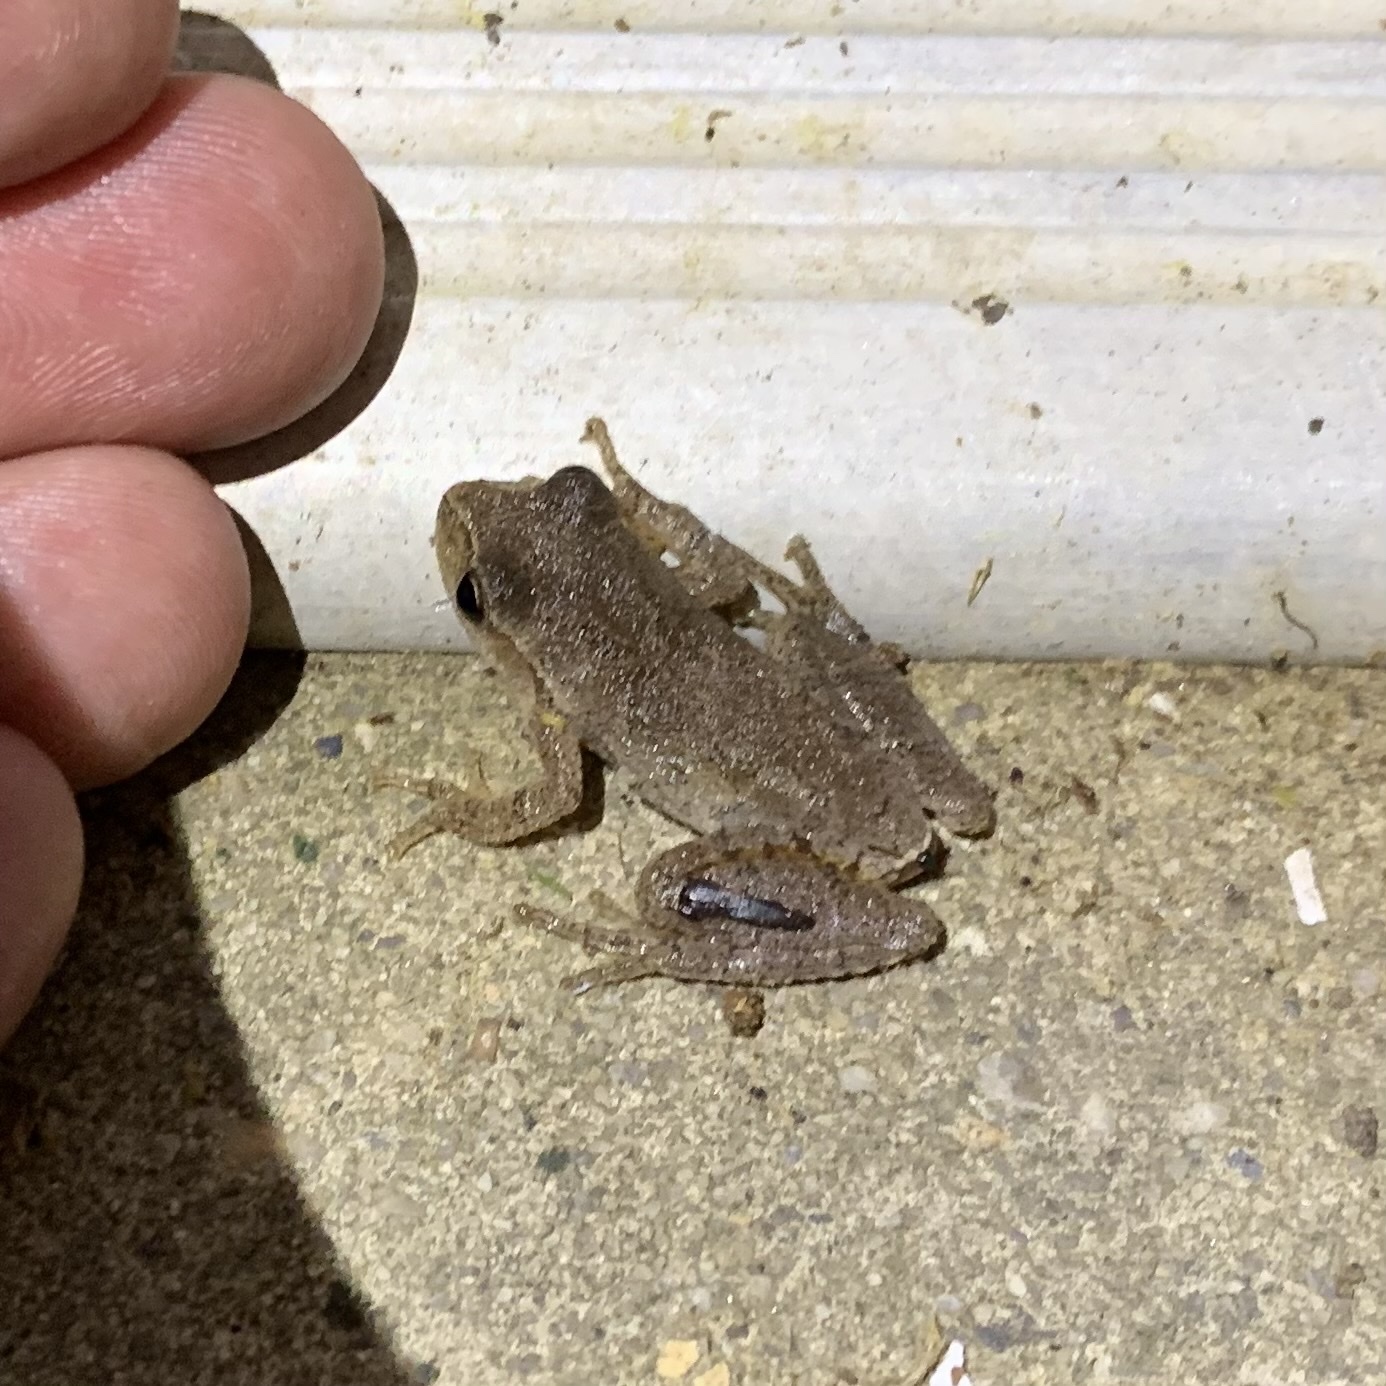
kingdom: Animalia
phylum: Chordata
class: Amphibia
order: Anura
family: Hylidae
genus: Pseudacris
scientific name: Pseudacris crucifer
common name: Spring peeper
